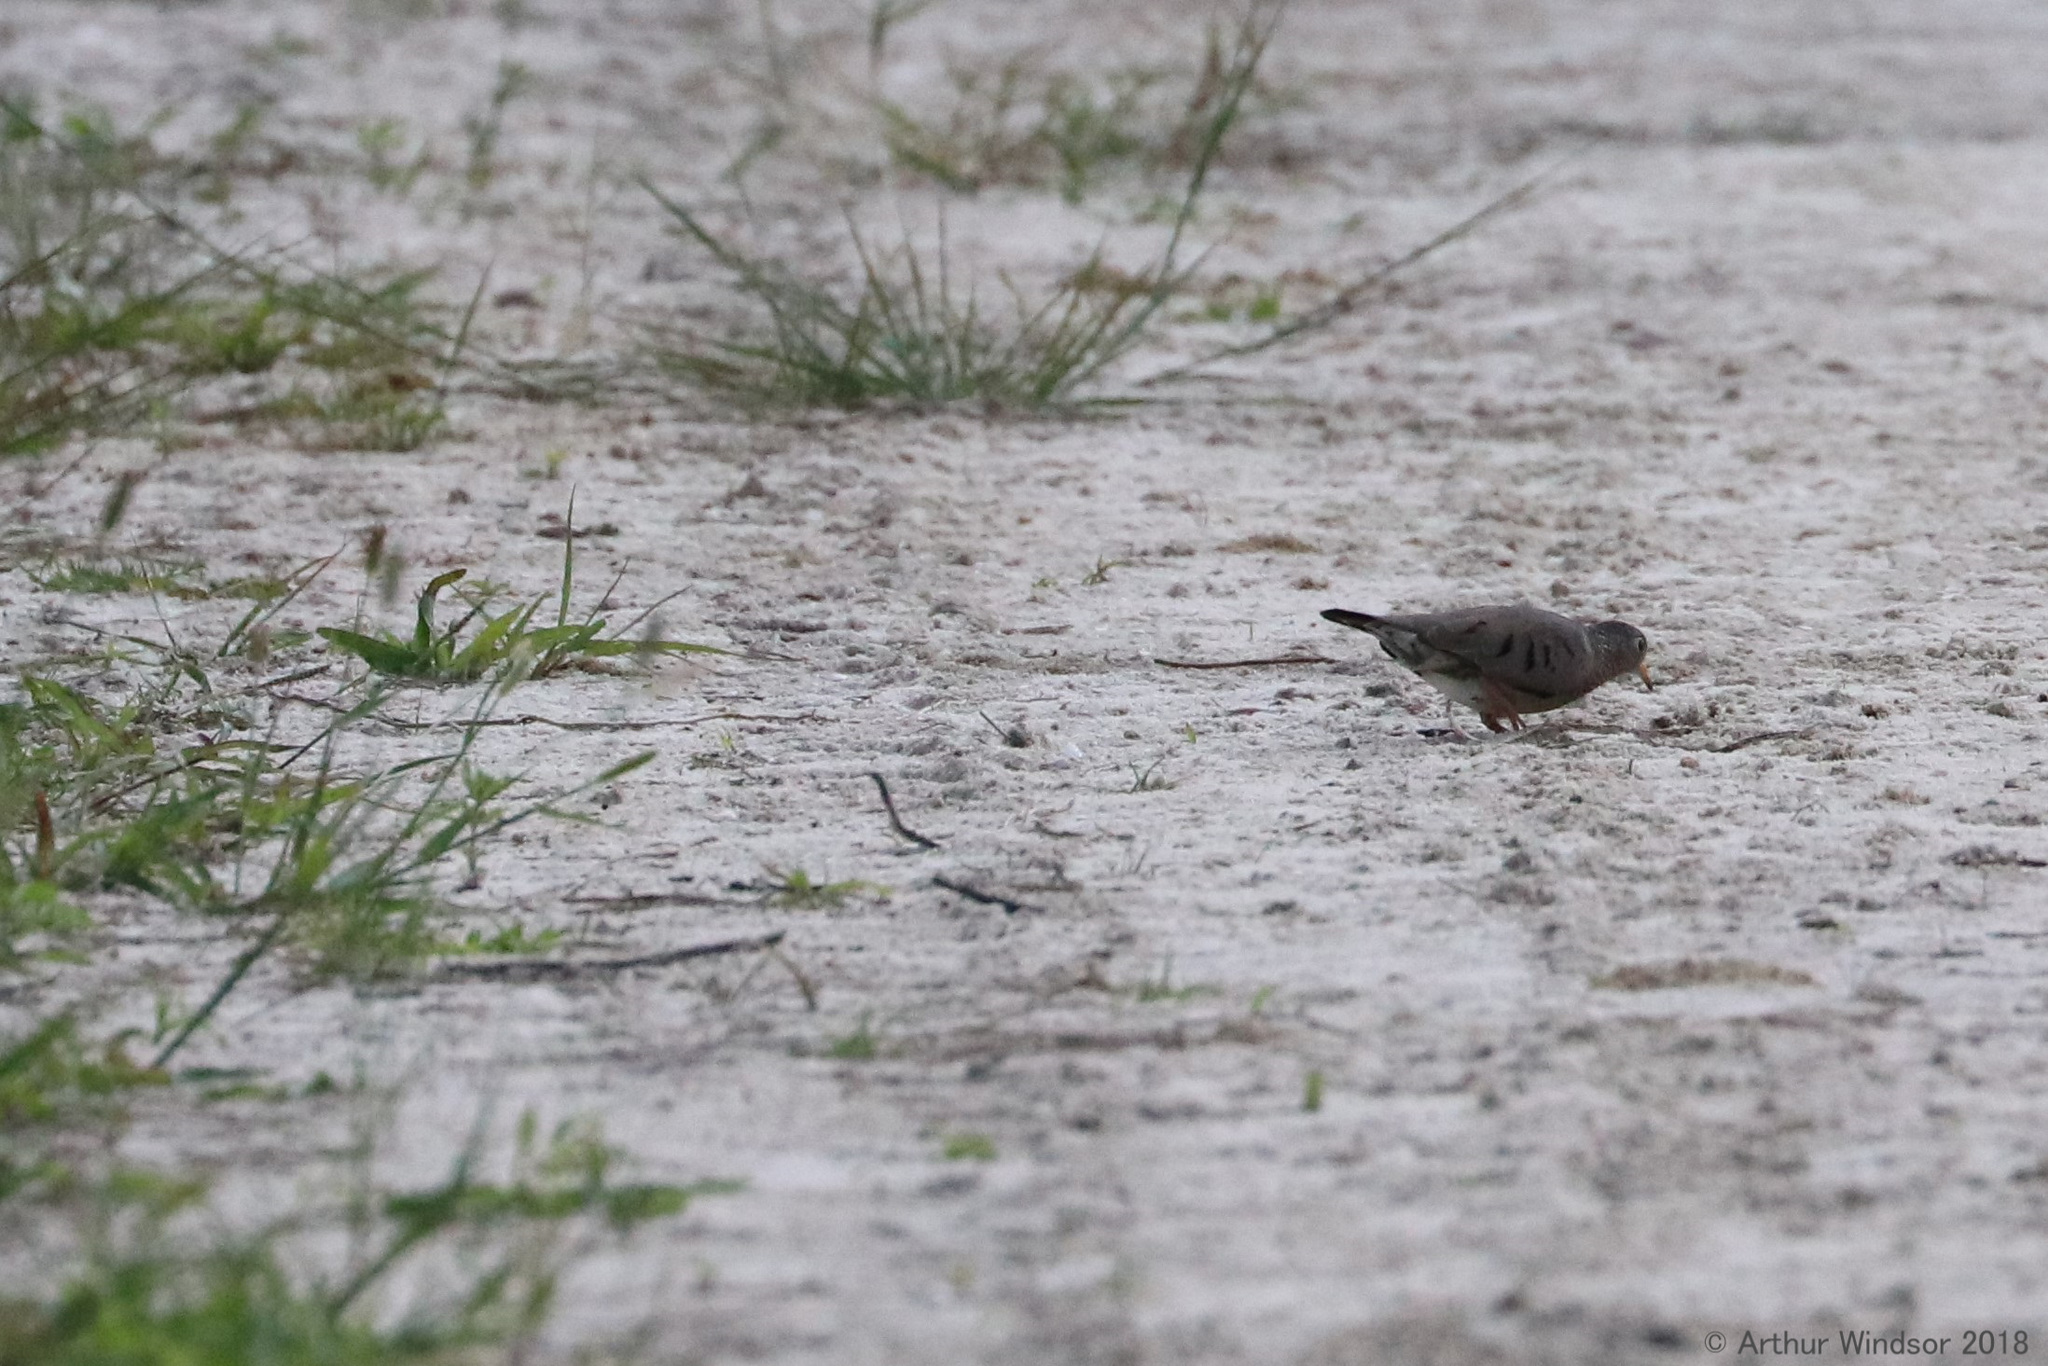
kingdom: Animalia
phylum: Chordata
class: Aves
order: Columbiformes
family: Columbidae
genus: Columbina
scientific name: Columbina passerina
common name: Common ground-dove
